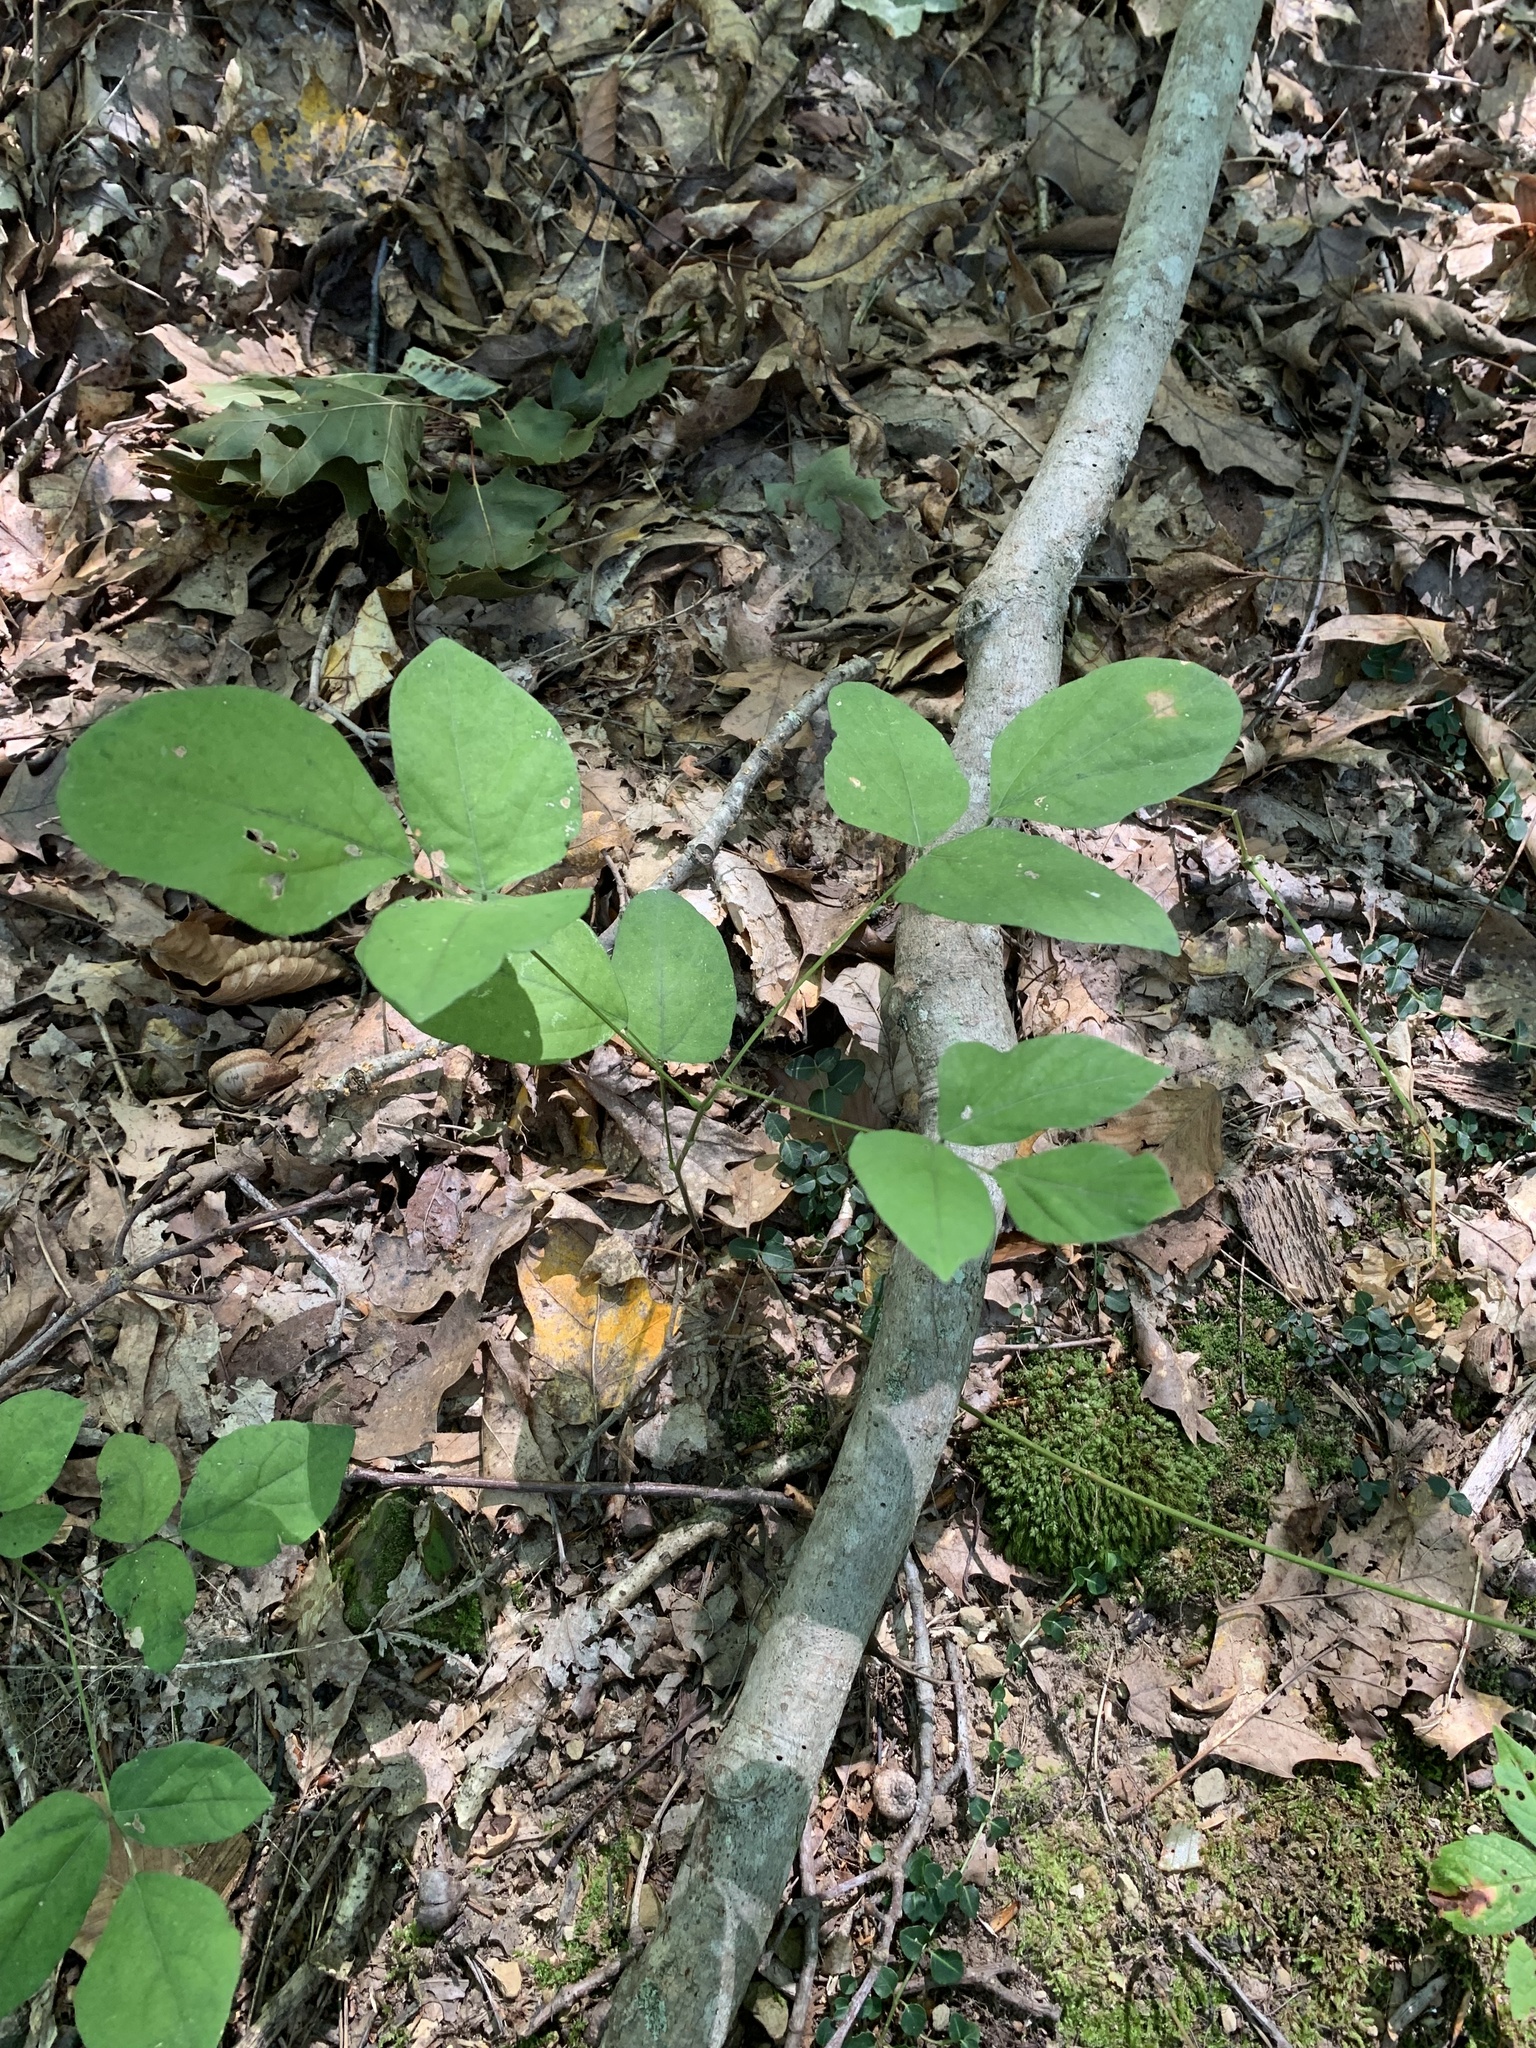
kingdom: Plantae
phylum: Tracheophyta
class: Magnoliopsida
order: Fabales
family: Fabaceae
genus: Hylodesmum
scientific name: Hylodesmum nudiflorum
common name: Bare-stemmed tick-trefoil
